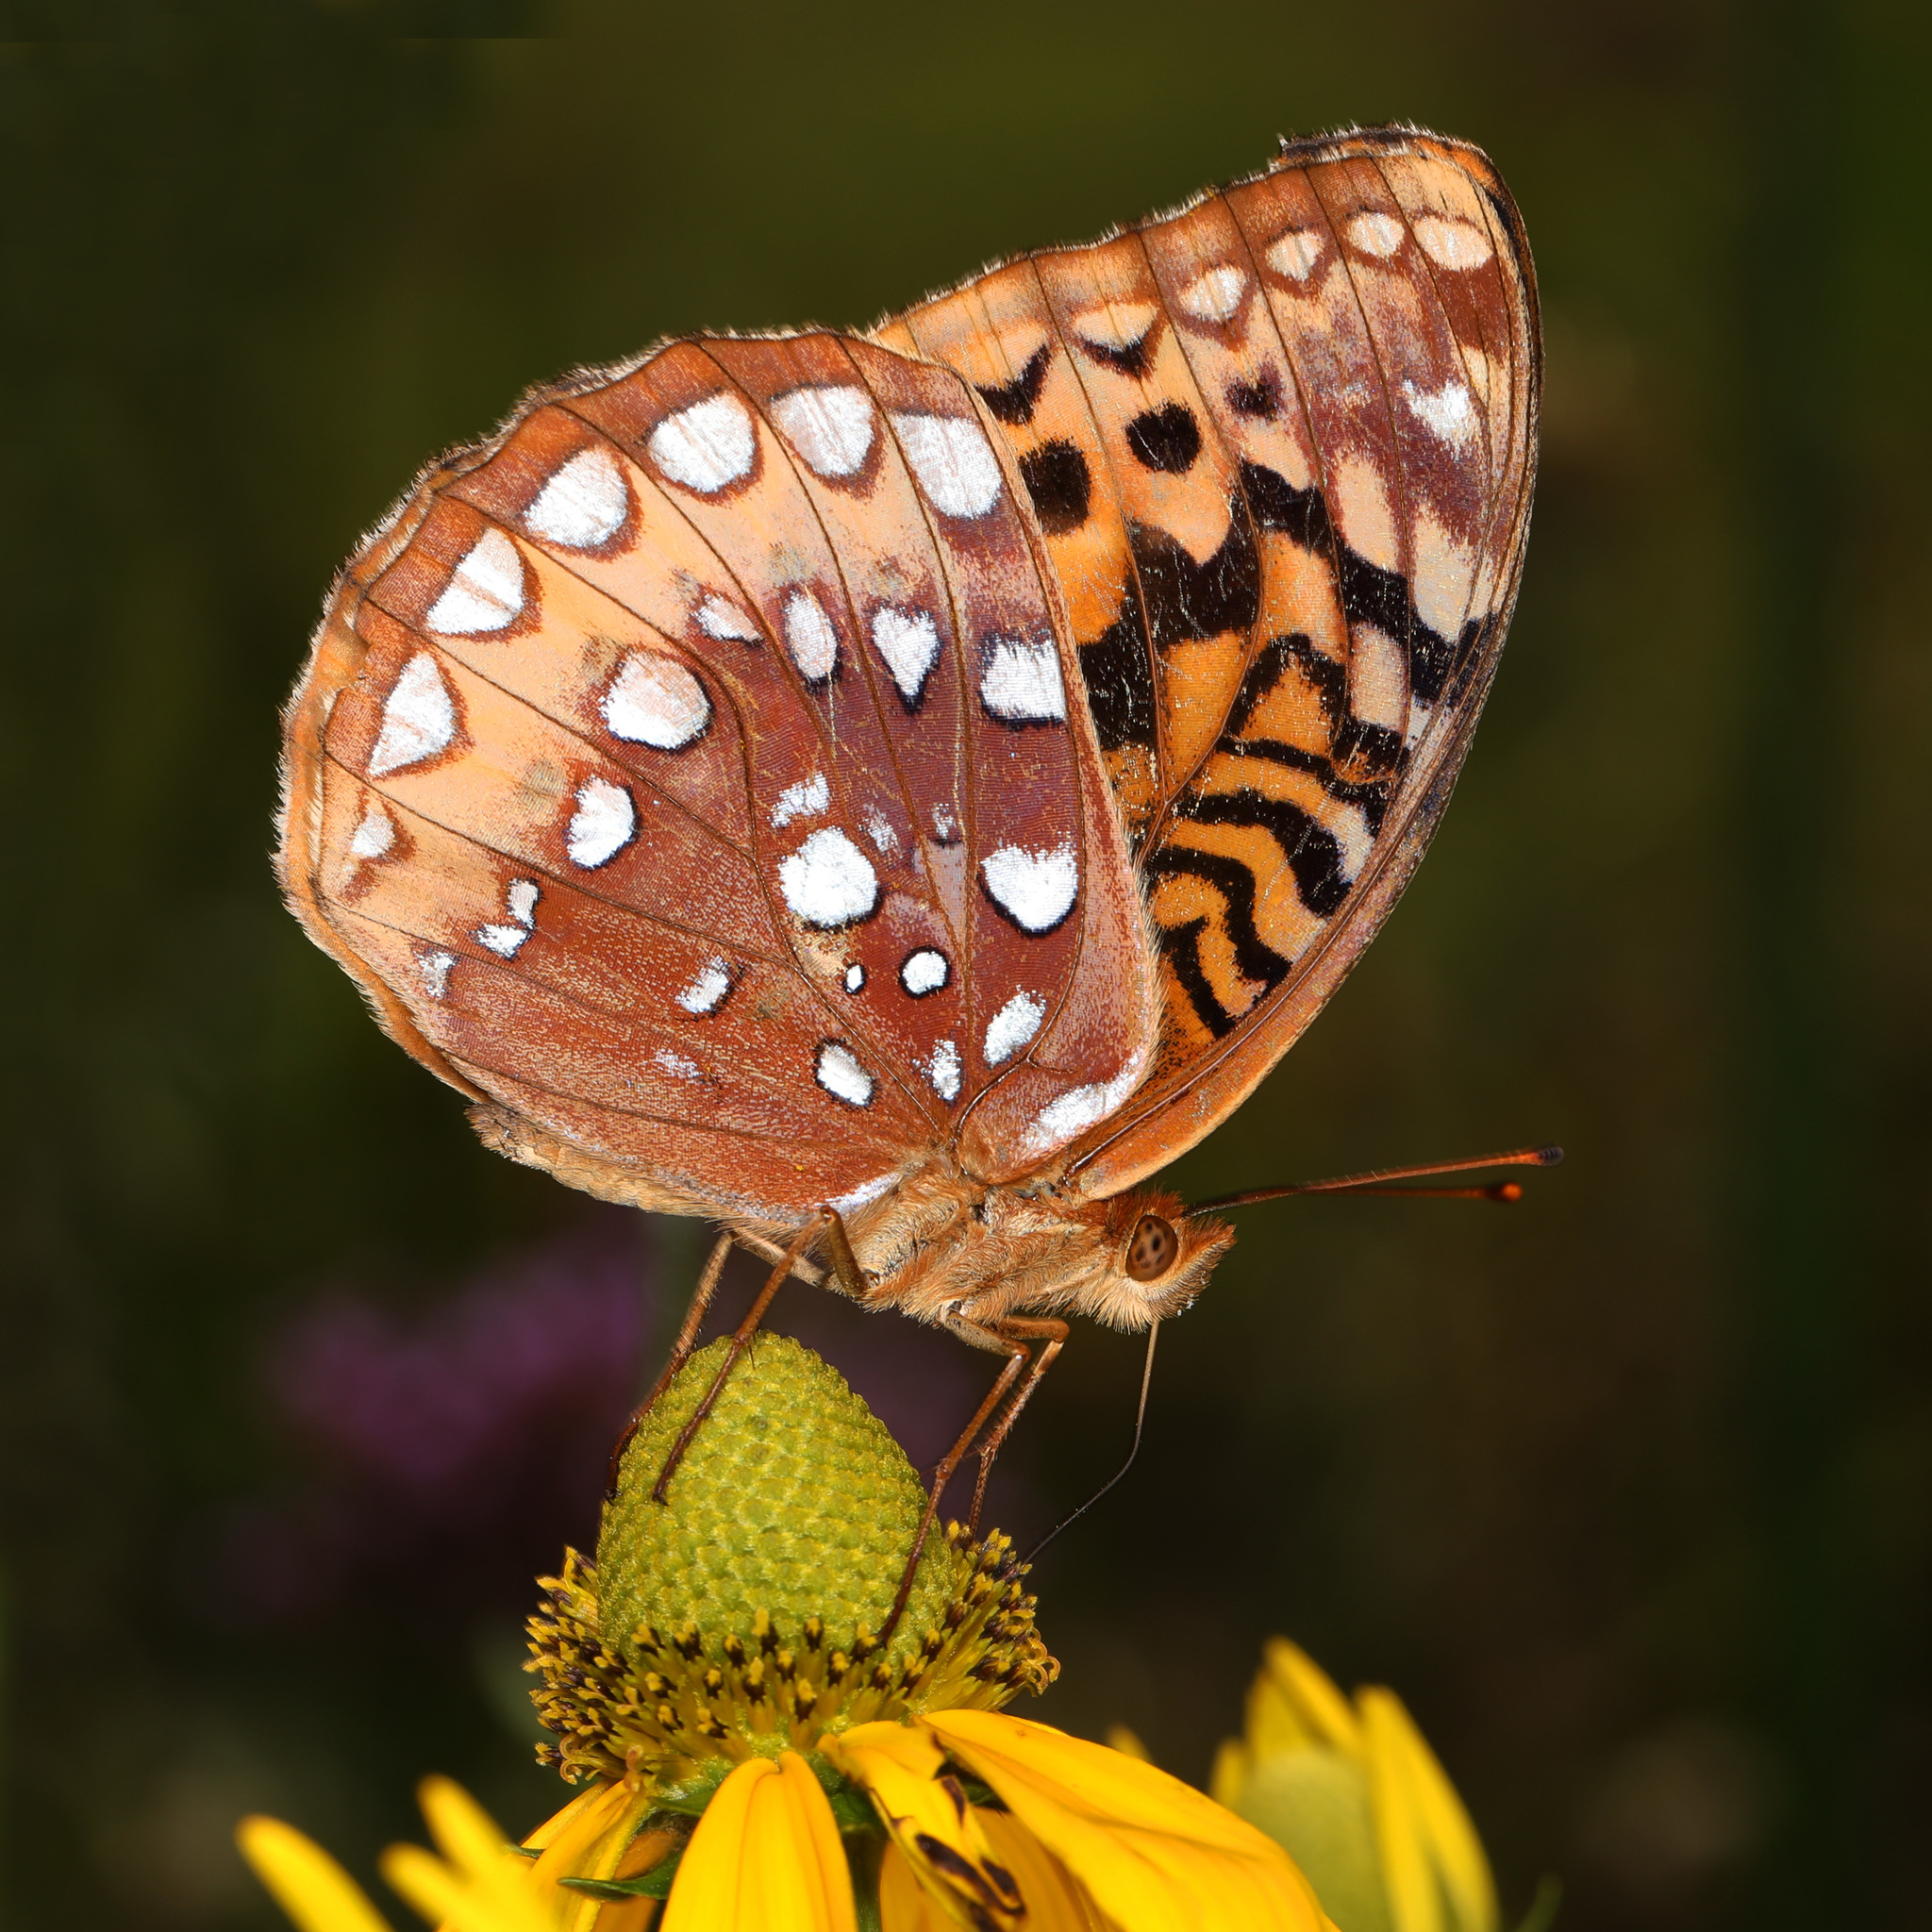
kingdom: Animalia
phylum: Arthropoda
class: Insecta
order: Lepidoptera
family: Nymphalidae
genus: Speyeria
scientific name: Speyeria cybele
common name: Great spangled fritillary
